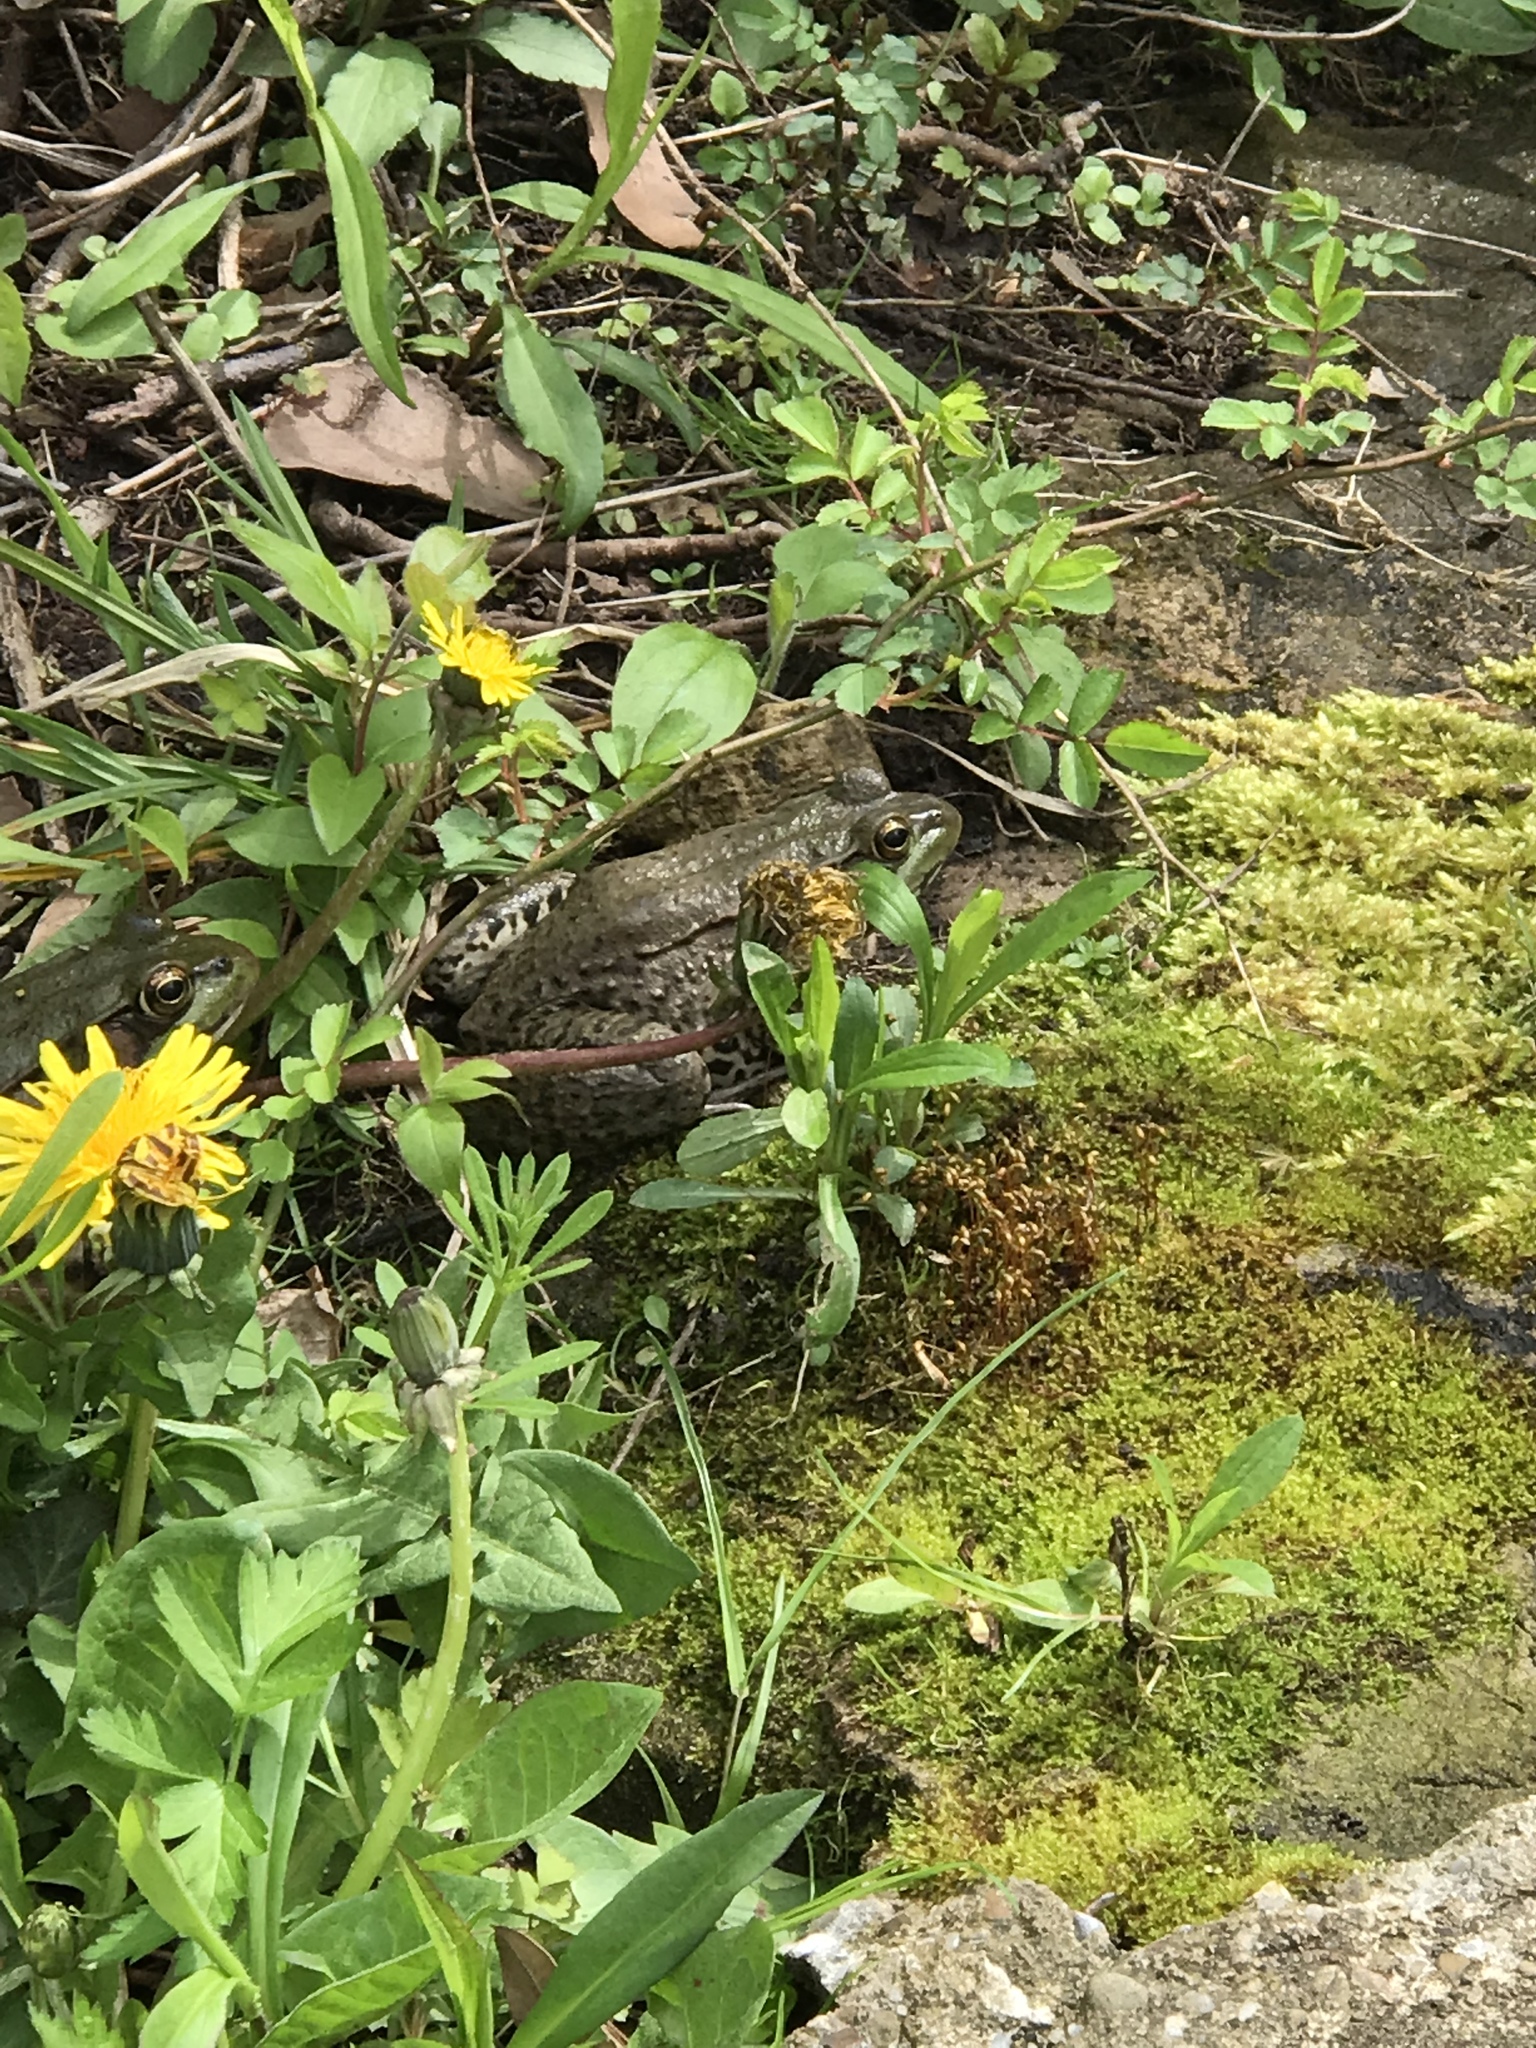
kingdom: Animalia
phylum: Chordata
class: Amphibia
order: Anura
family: Ranidae
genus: Lithobates
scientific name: Lithobates clamitans
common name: Green frog
